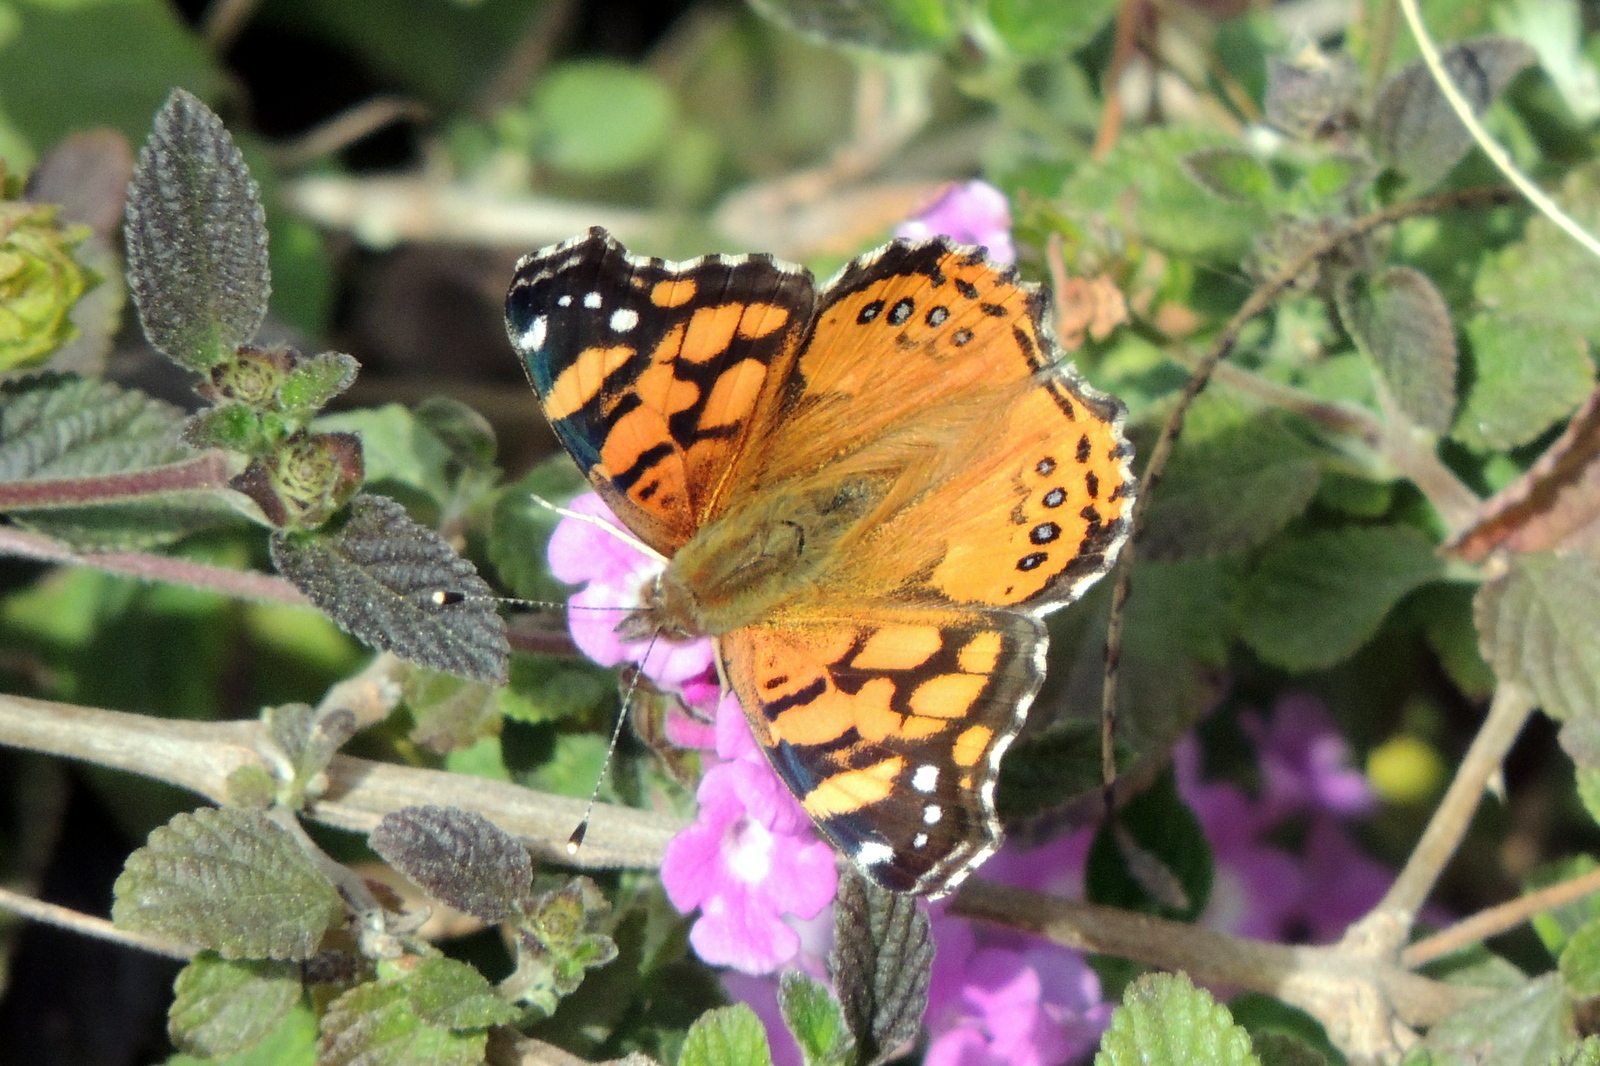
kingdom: Animalia
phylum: Arthropoda
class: Insecta
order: Lepidoptera
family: Nymphalidae
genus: Vanessa
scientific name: Vanessa annabella
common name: West coast lady
